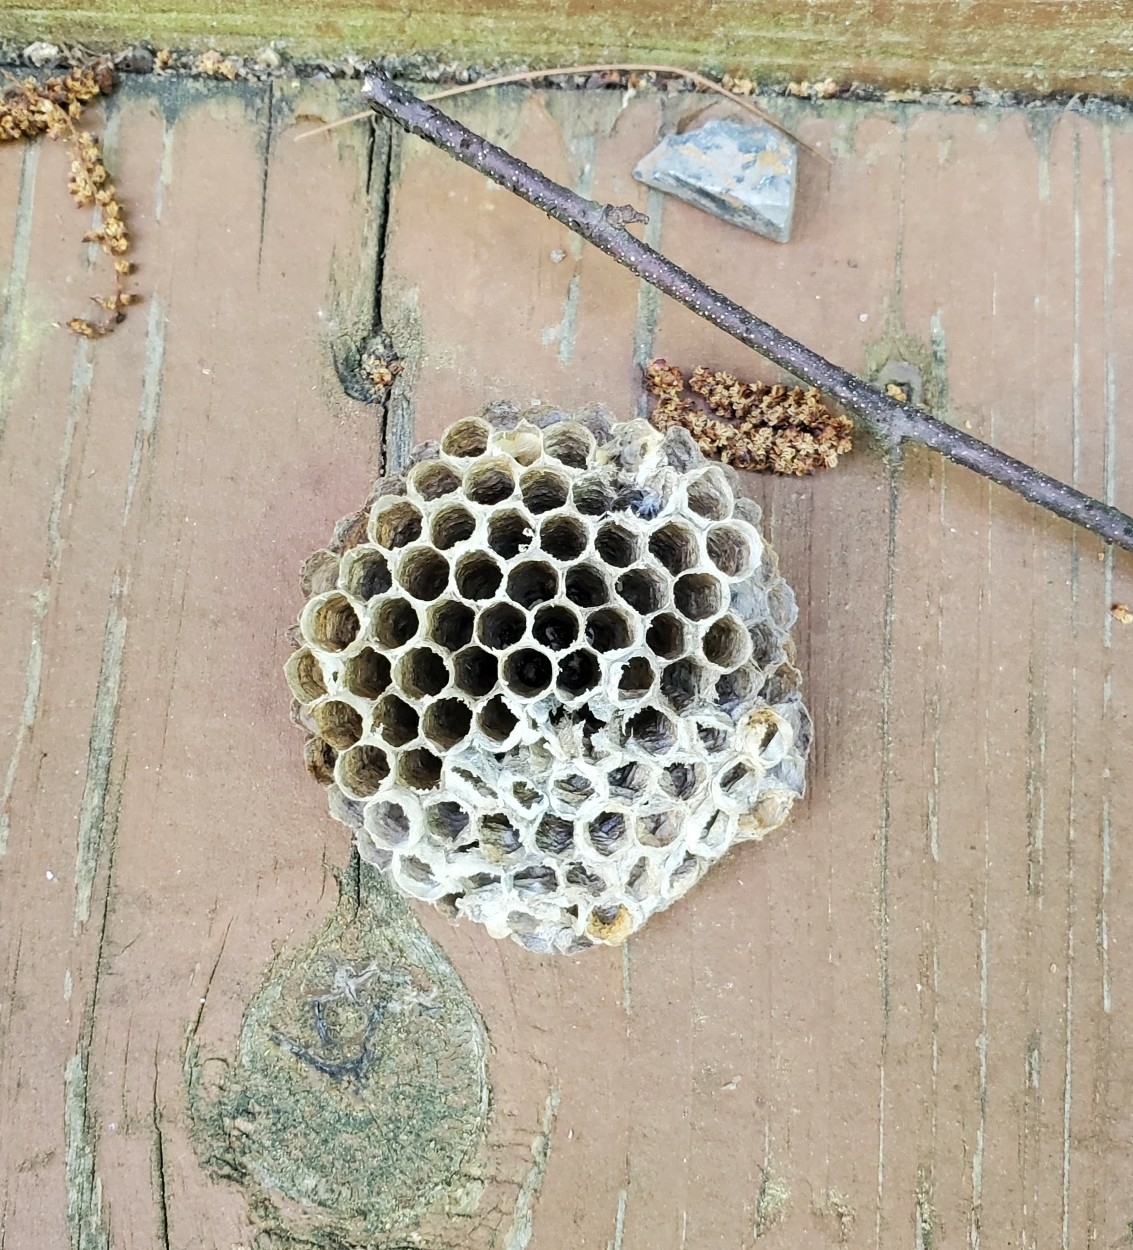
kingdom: Animalia
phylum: Arthropoda
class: Insecta
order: Hymenoptera
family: Eumenidae
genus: Polistes
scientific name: Polistes
